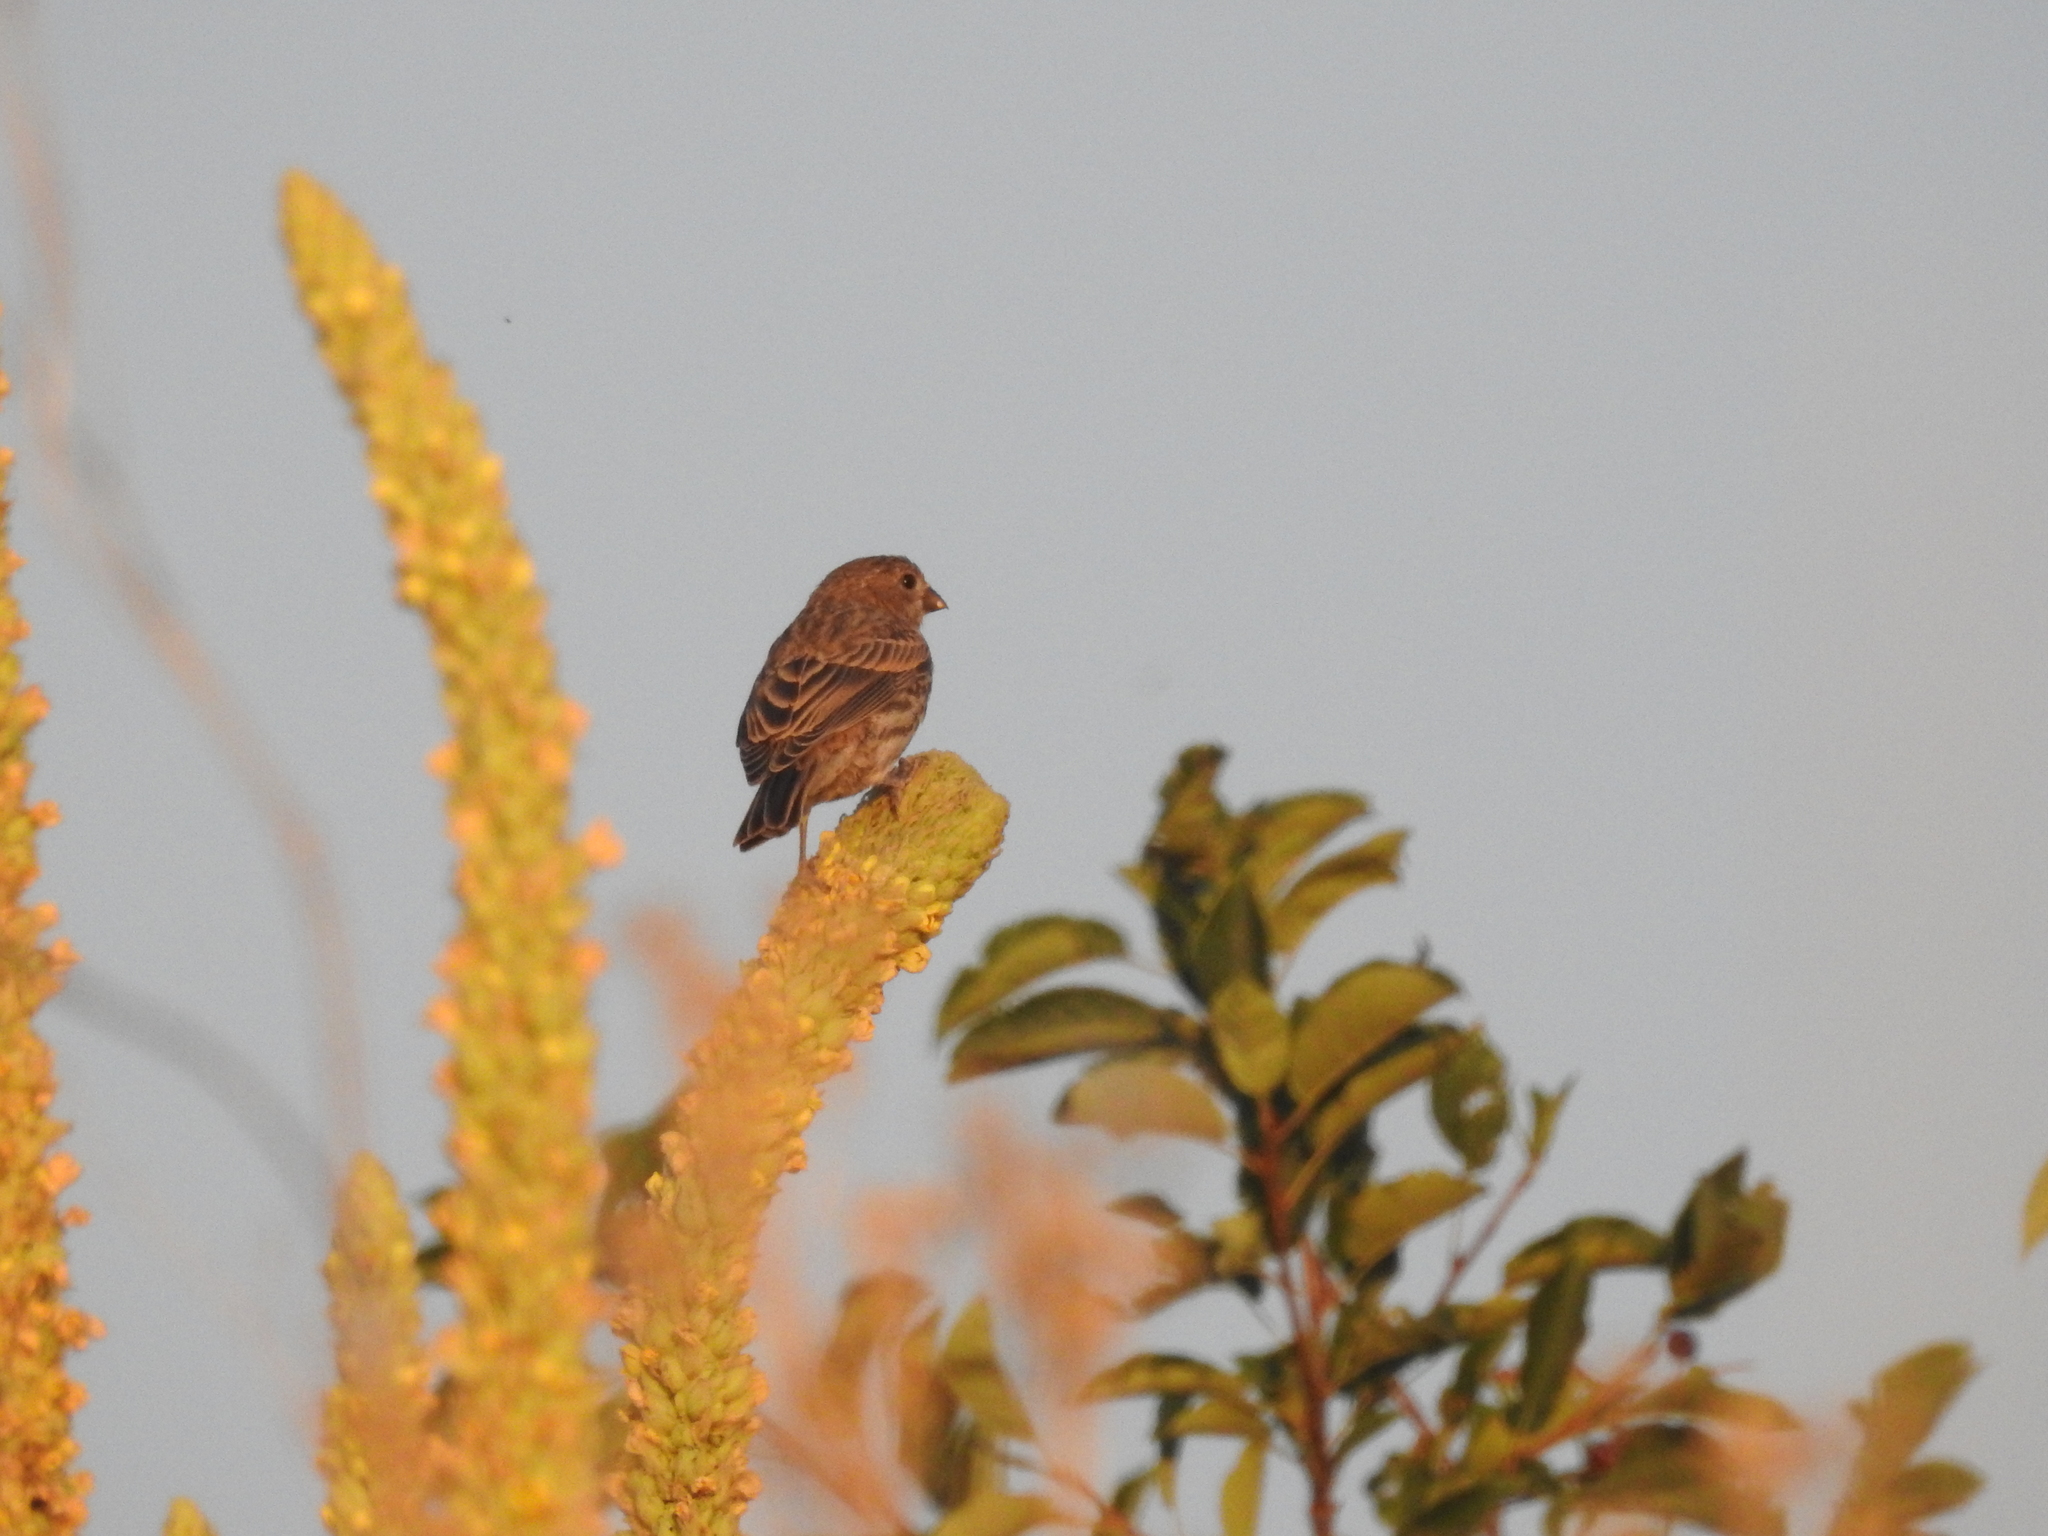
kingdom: Animalia
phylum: Chordata
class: Aves
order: Passeriformes
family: Fringillidae
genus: Haemorhous
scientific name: Haemorhous mexicanus
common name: House finch
